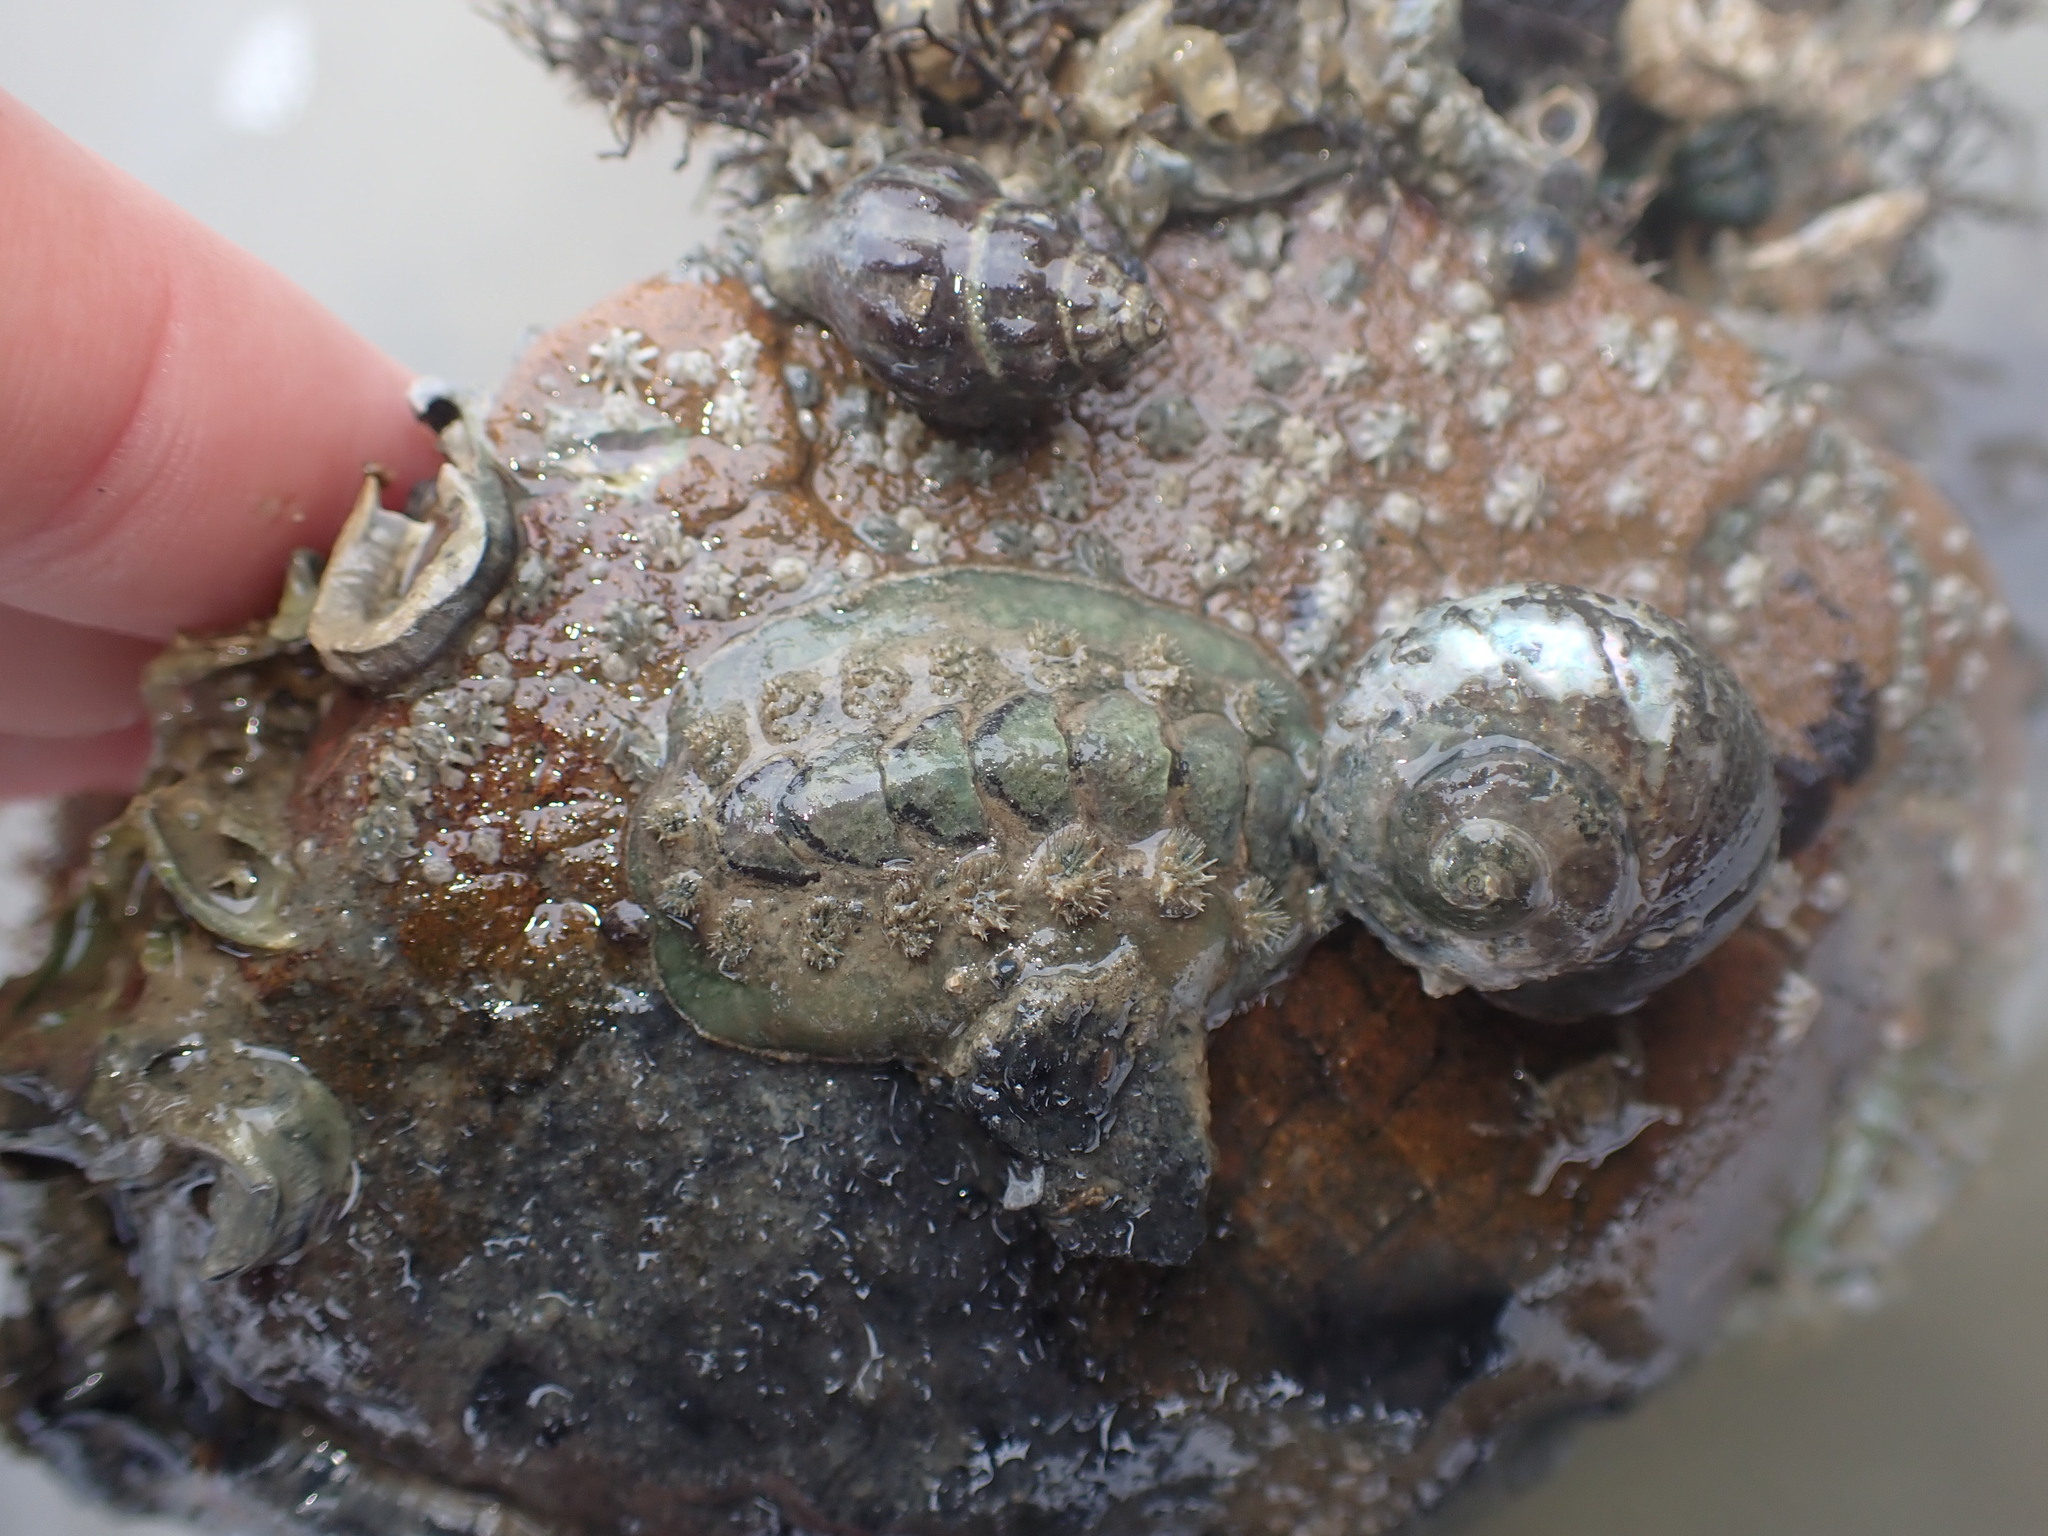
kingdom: Animalia
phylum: Mollusca
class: Polyplacophora
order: Chitonida
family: Acanthochitonidae
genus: Acanthochitona
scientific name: Acanthochitona zelandica
